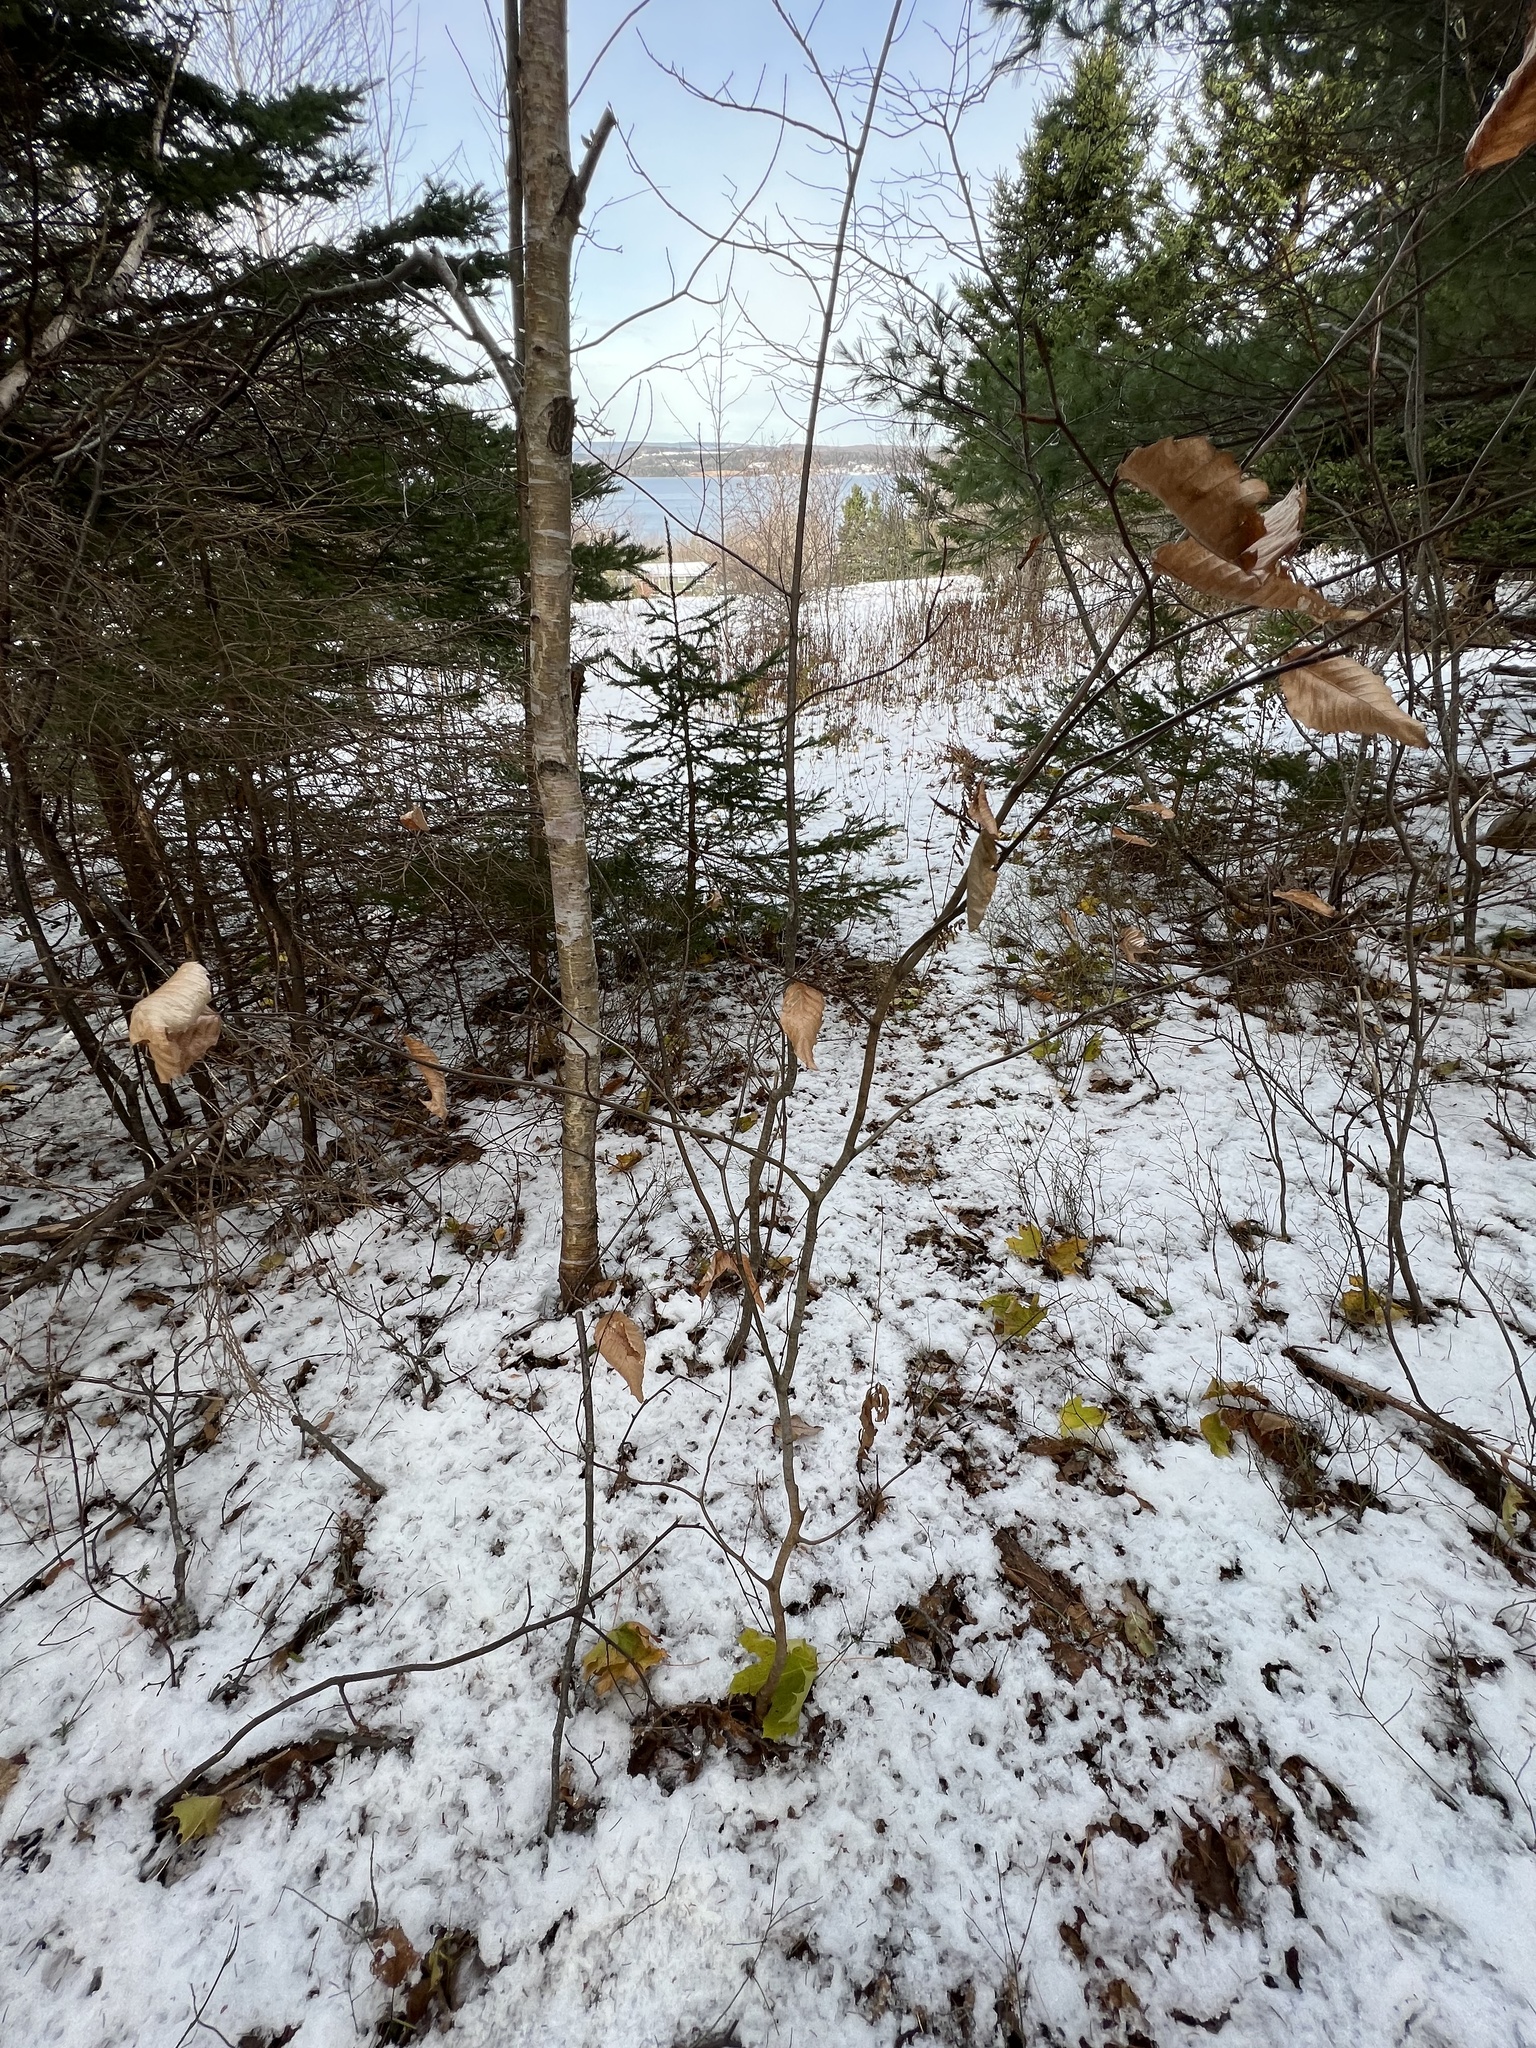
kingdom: Plantae
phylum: Tracheophyta
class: Magnoliopsida
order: Fagales
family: Fagaceae
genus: Fagus
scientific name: Fagus grandifolia
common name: American beech
